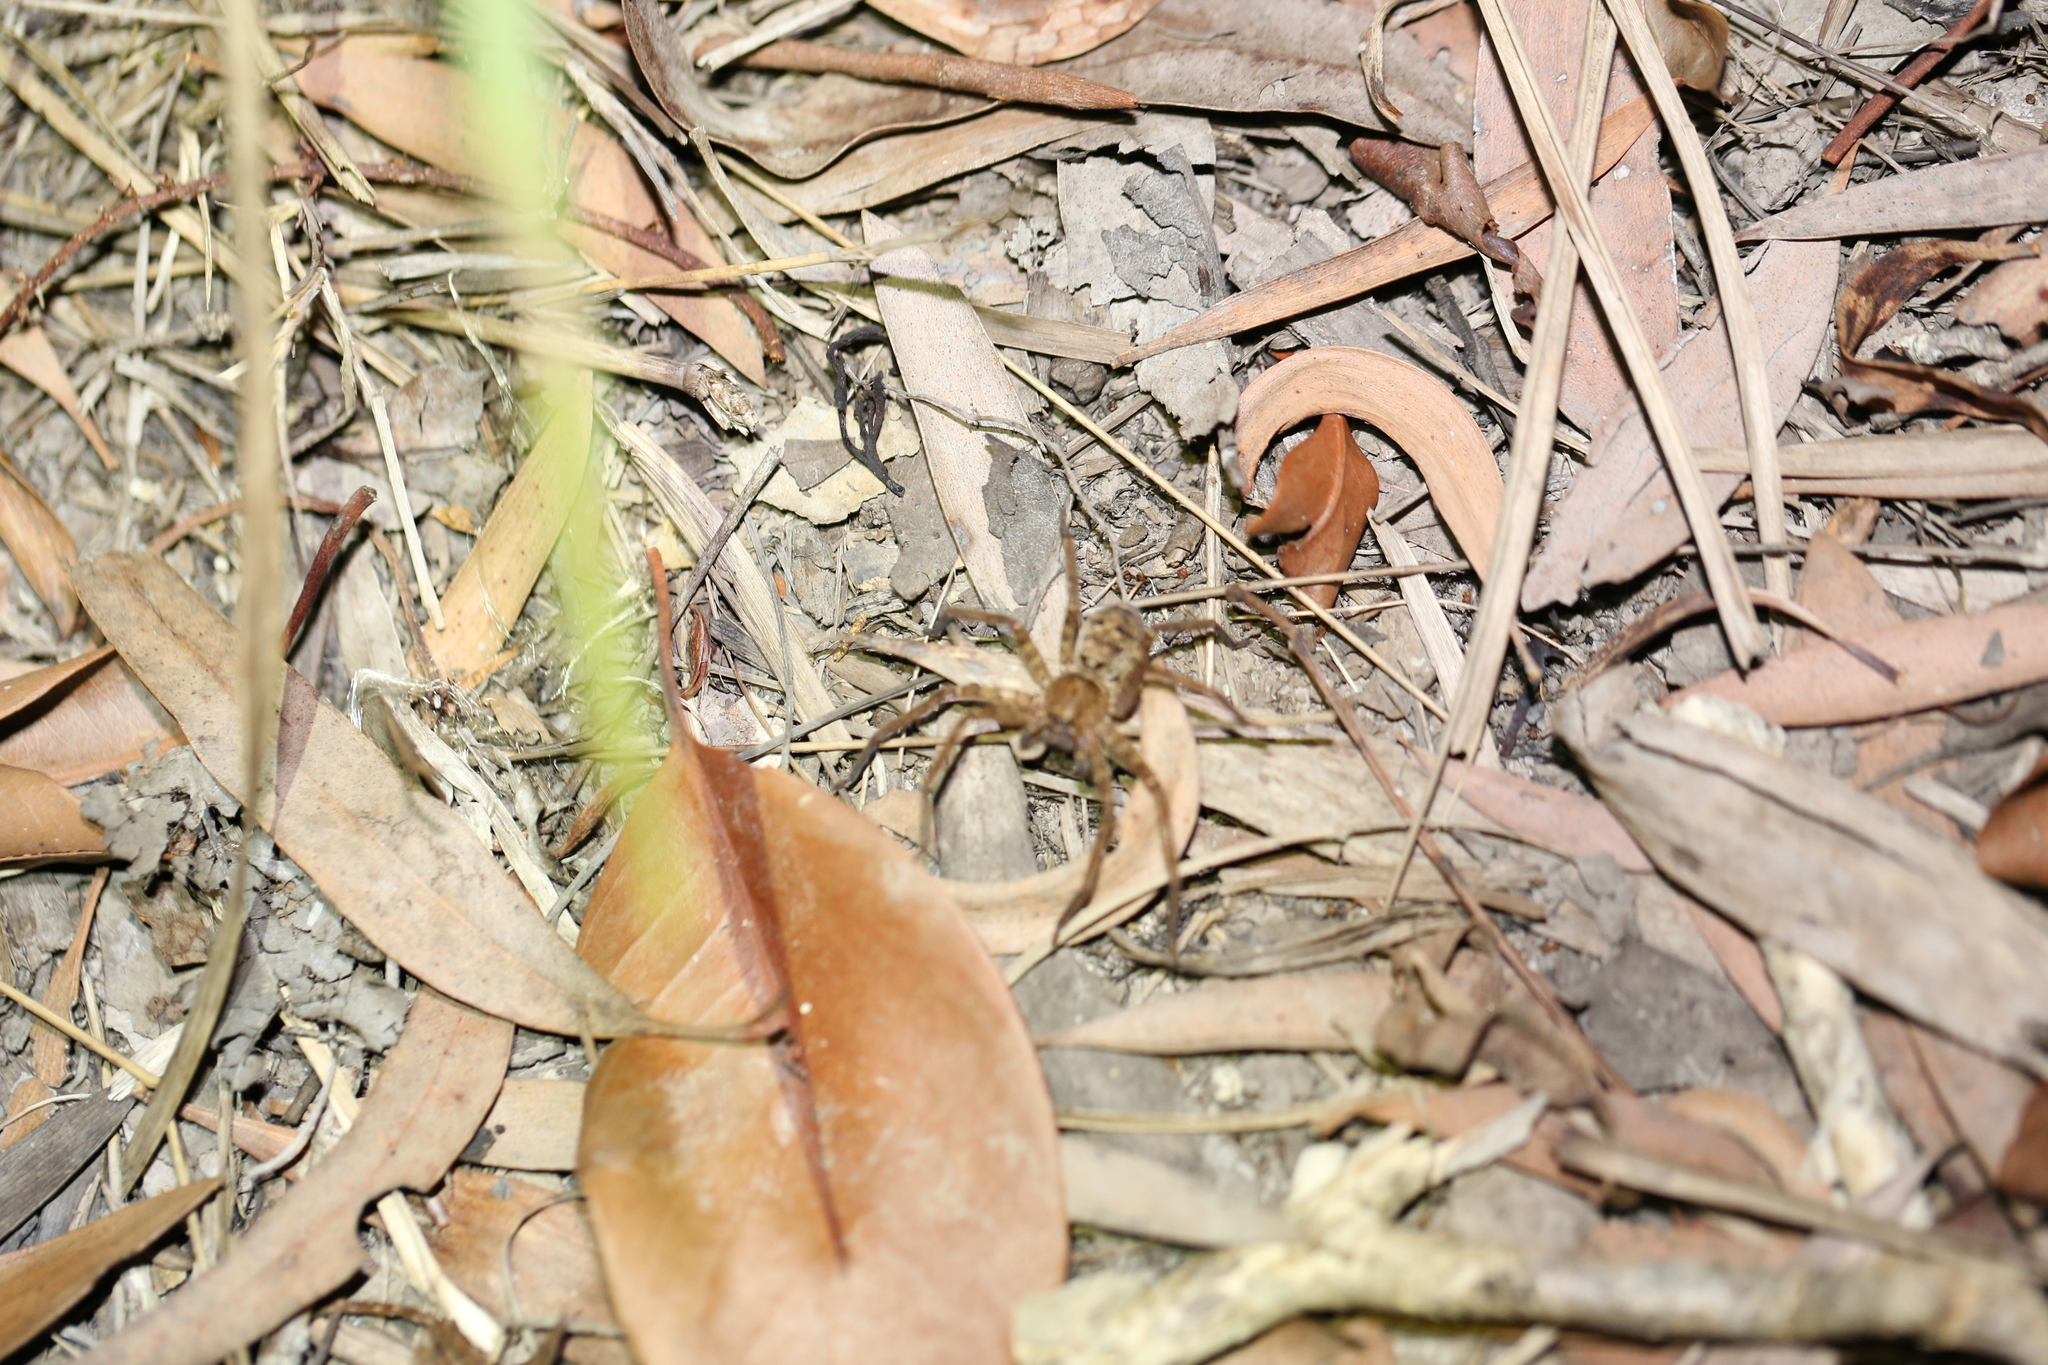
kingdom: Animalia
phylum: Arthropoda
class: Arachnida
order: Araneae
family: Sparassidae
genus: Heteropoda
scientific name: Heteropoda jugulans
